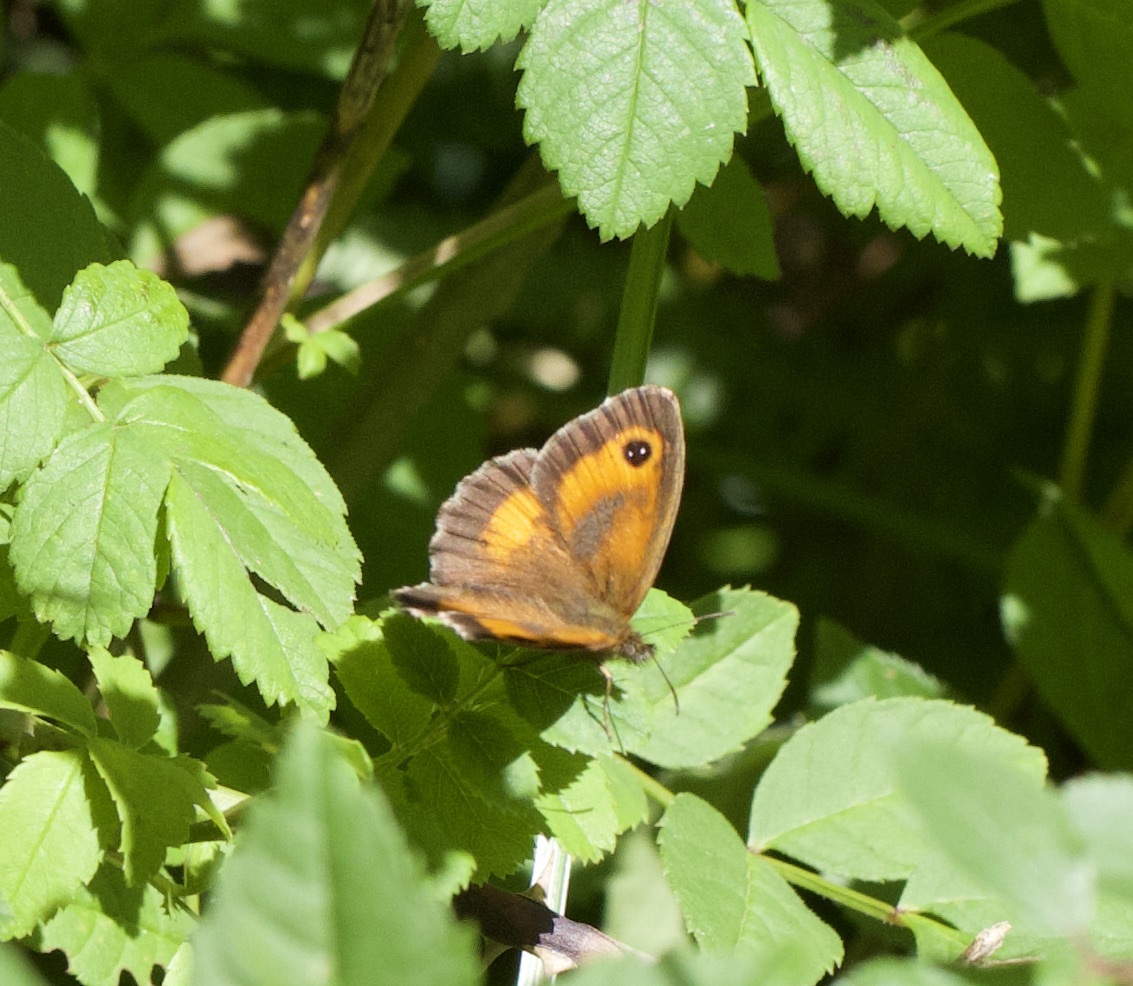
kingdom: Animalia
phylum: Arthropoda
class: Insecta
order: Lepidoptera
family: Nymphalidae
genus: Pyronia
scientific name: Pyronia tithonus
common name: Gatekeeper
